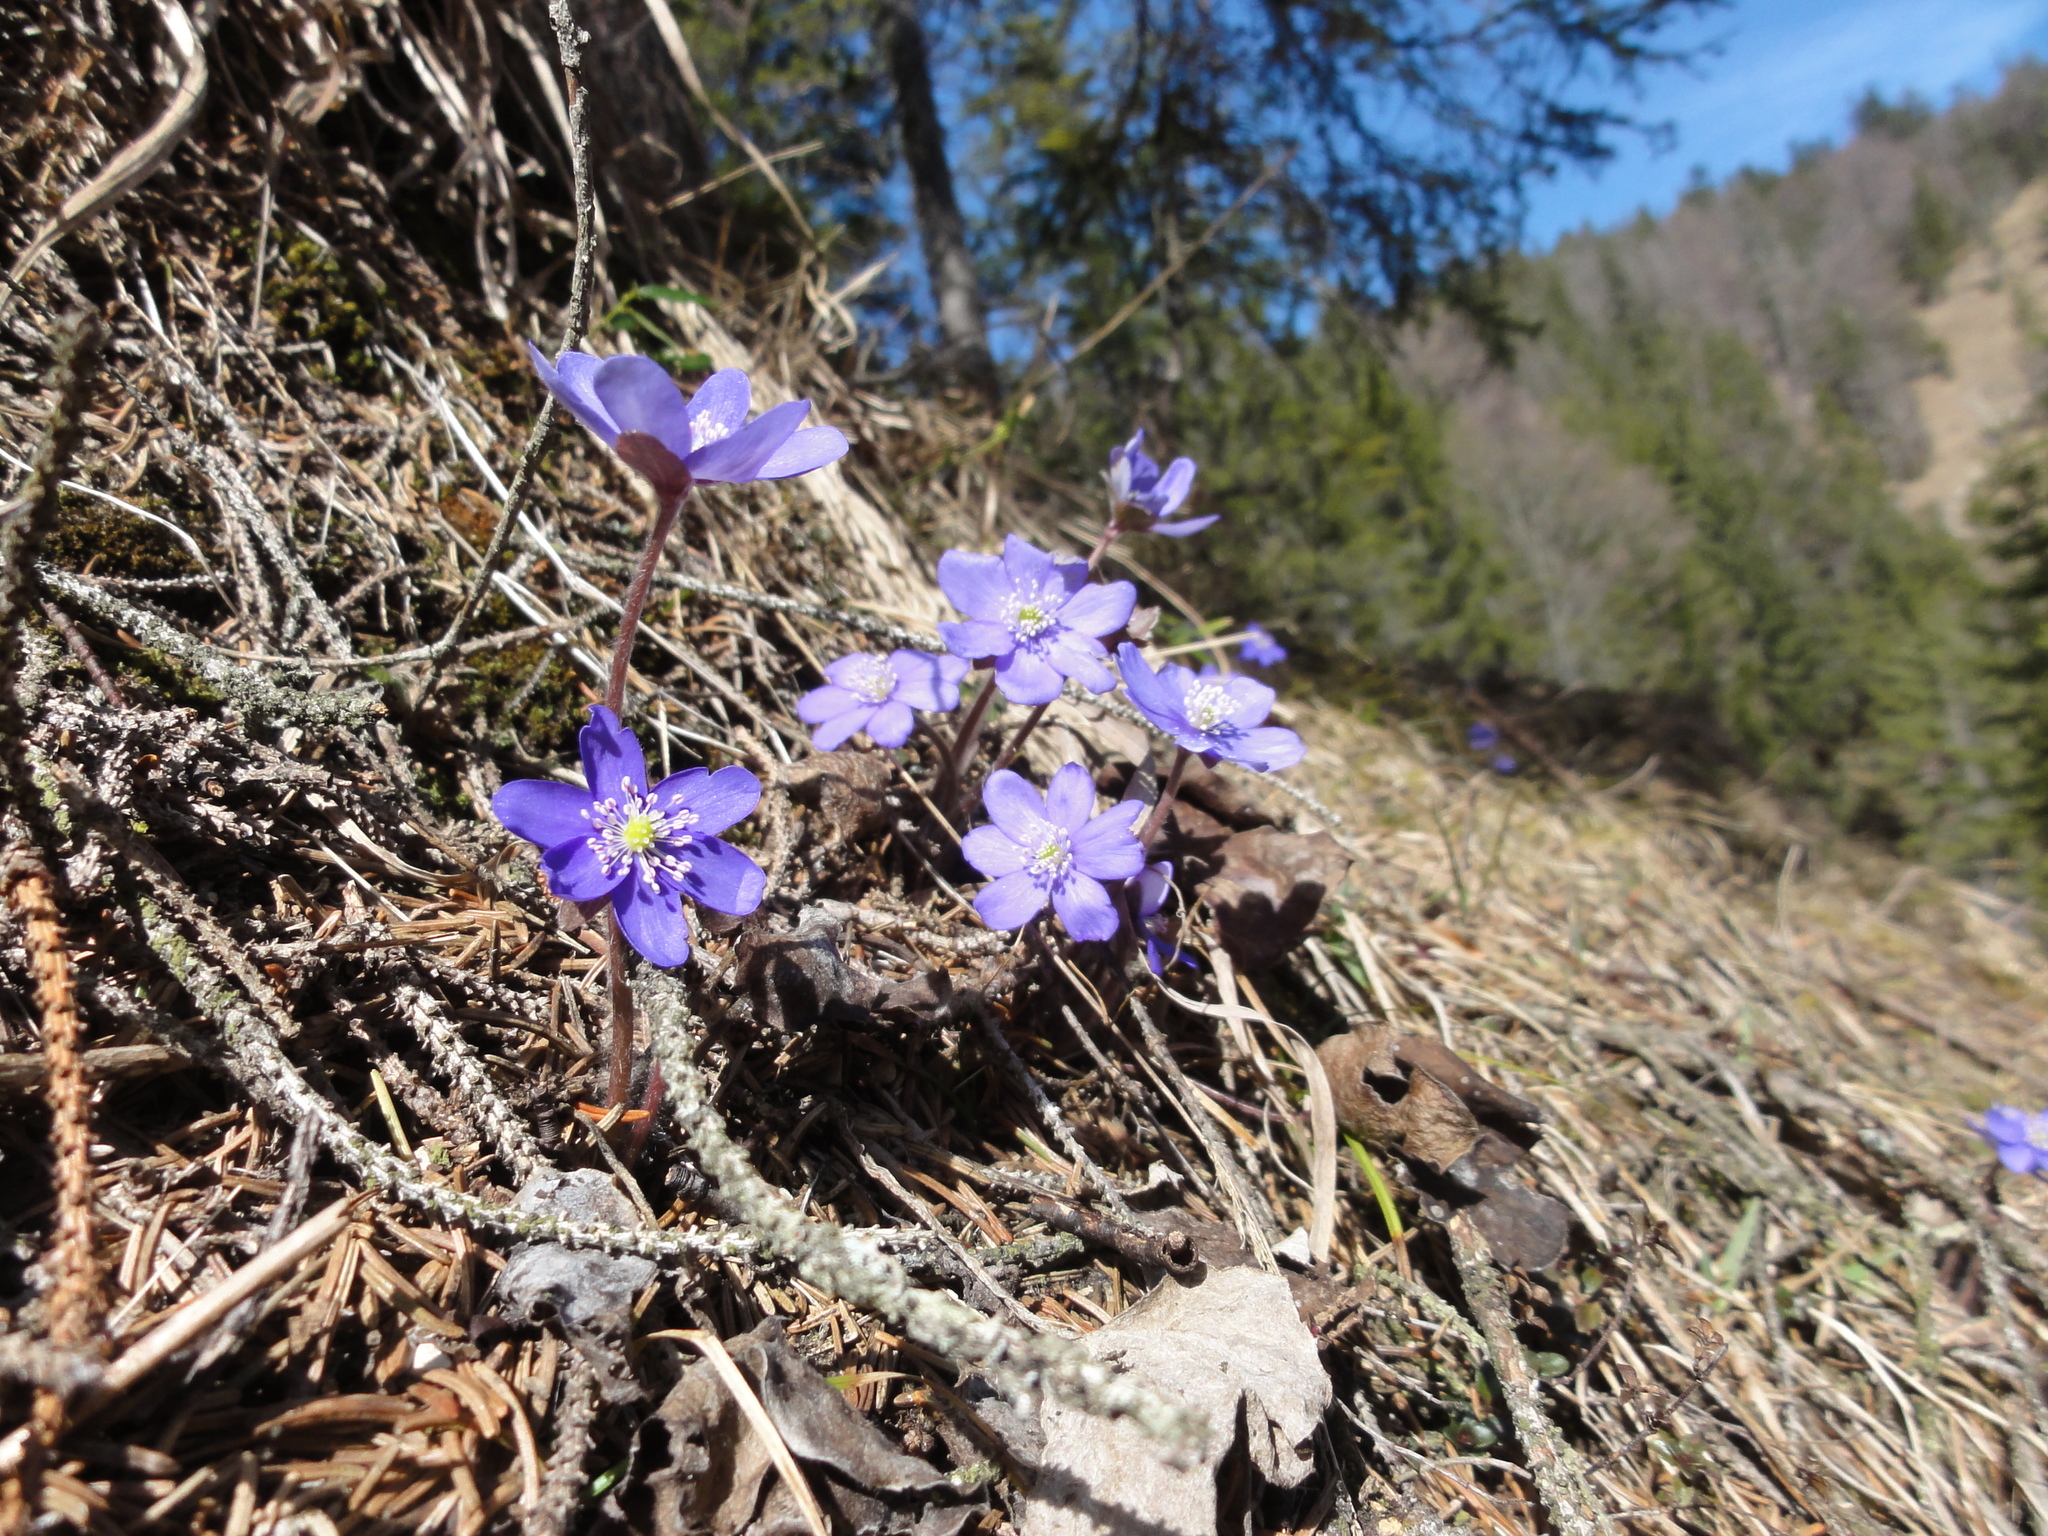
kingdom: Plantae
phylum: Tracheophyta
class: Magnoliopsida
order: Ranunculales
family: Ranunculaceae
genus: Hepatica
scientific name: Hepatica nobilis
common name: Liverleaf
